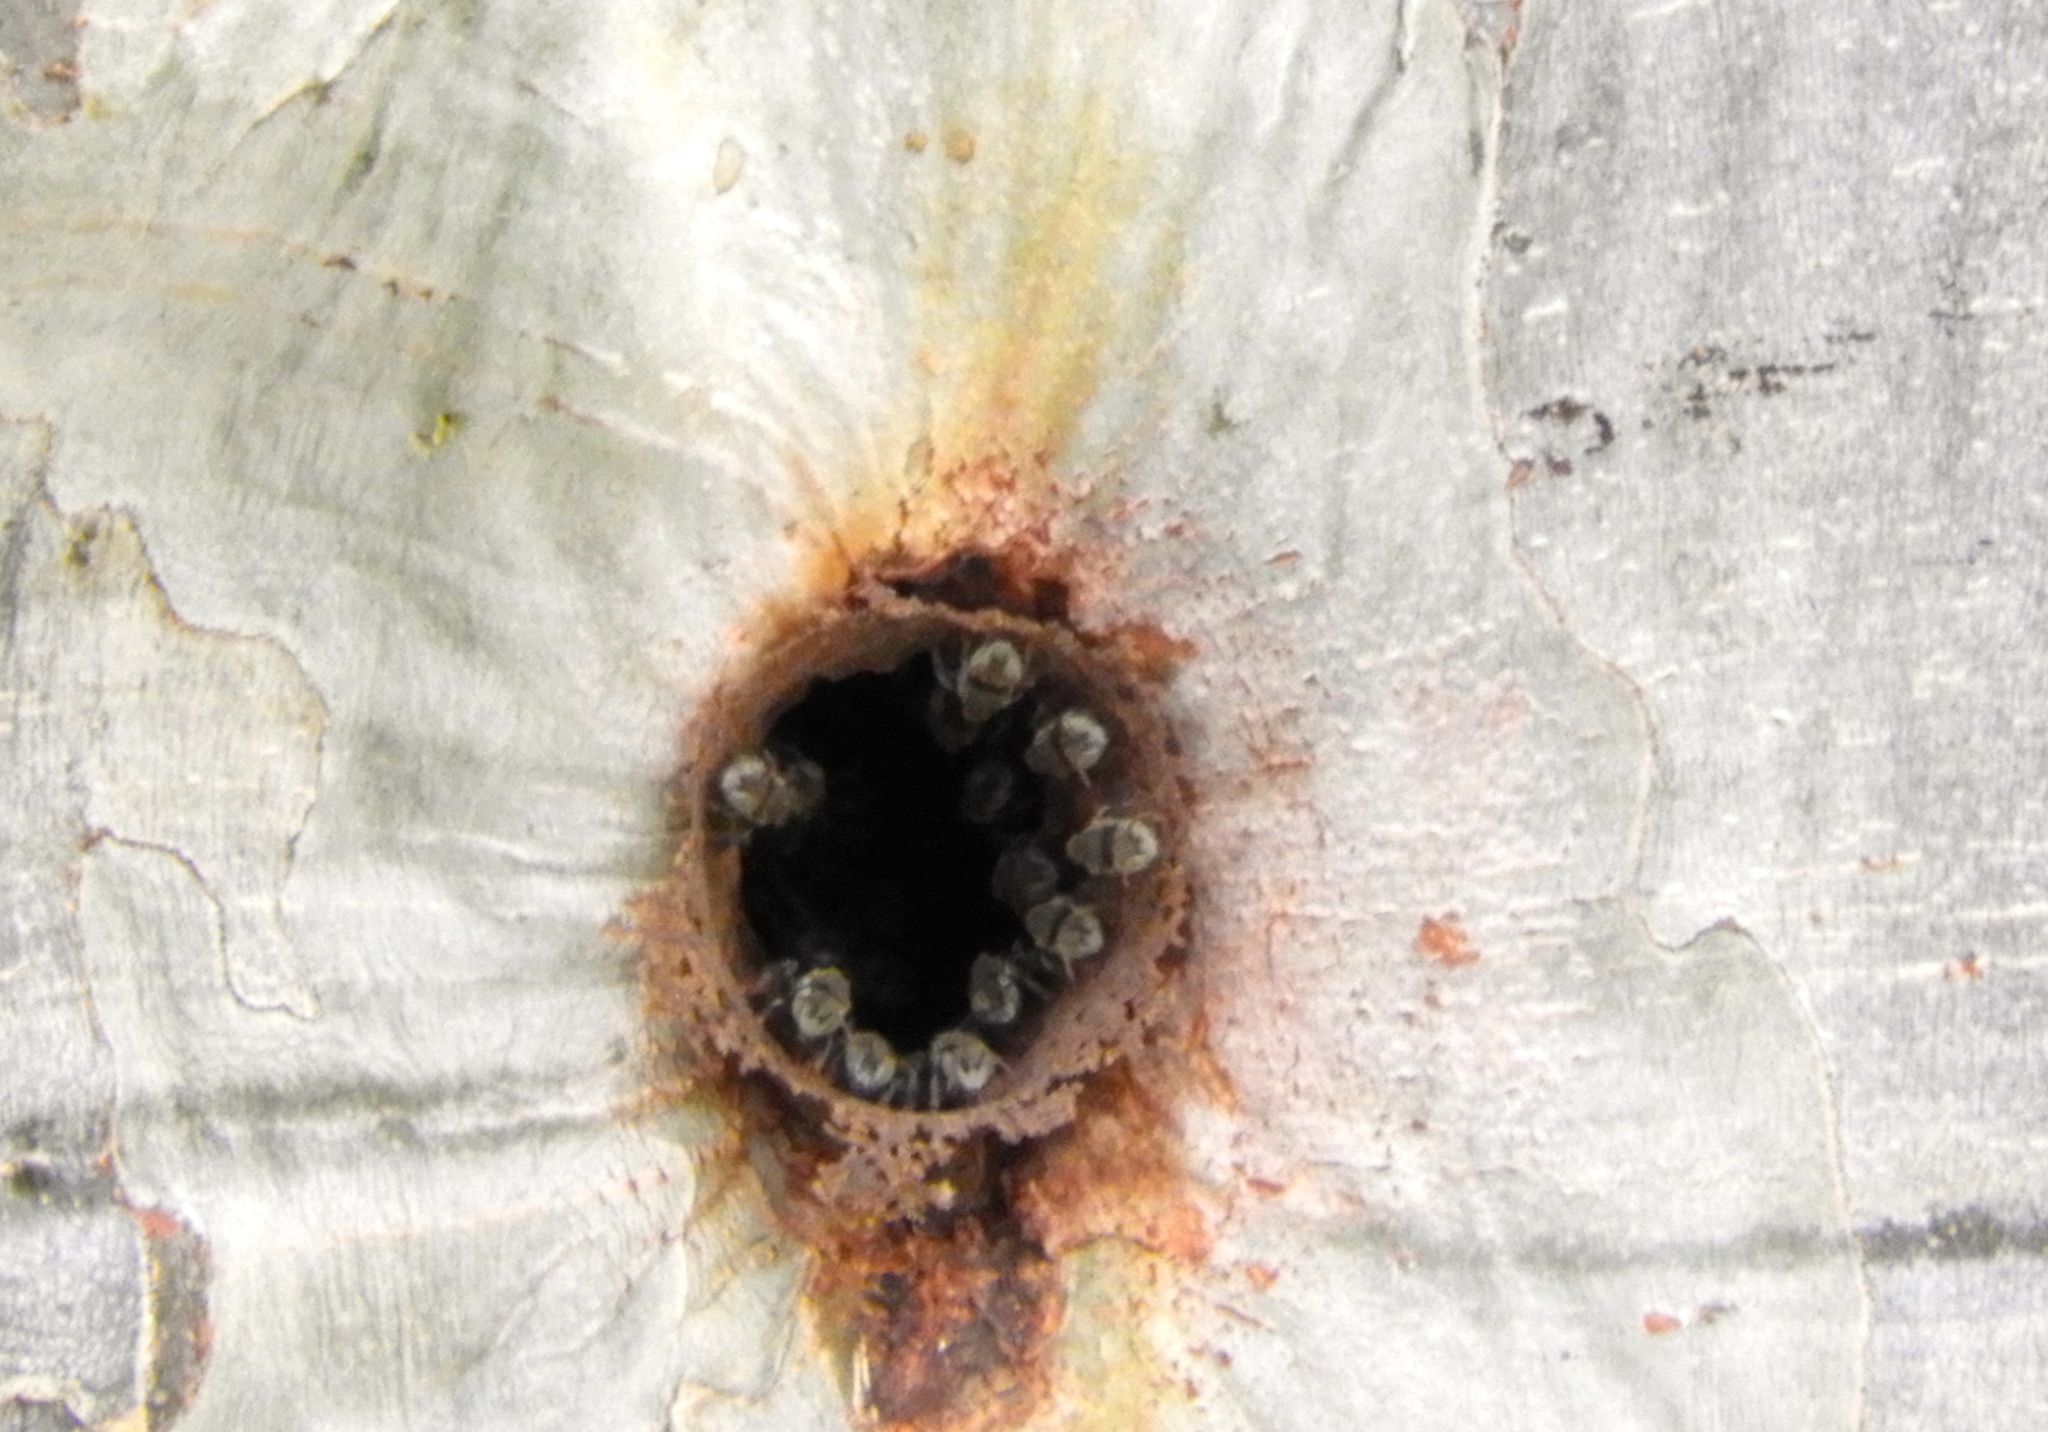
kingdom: Animalia
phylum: Arthropoda
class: Insecta
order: Hymenoptera
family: Apidae
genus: Nannotrigona
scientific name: Nannotrigona perilampoides
